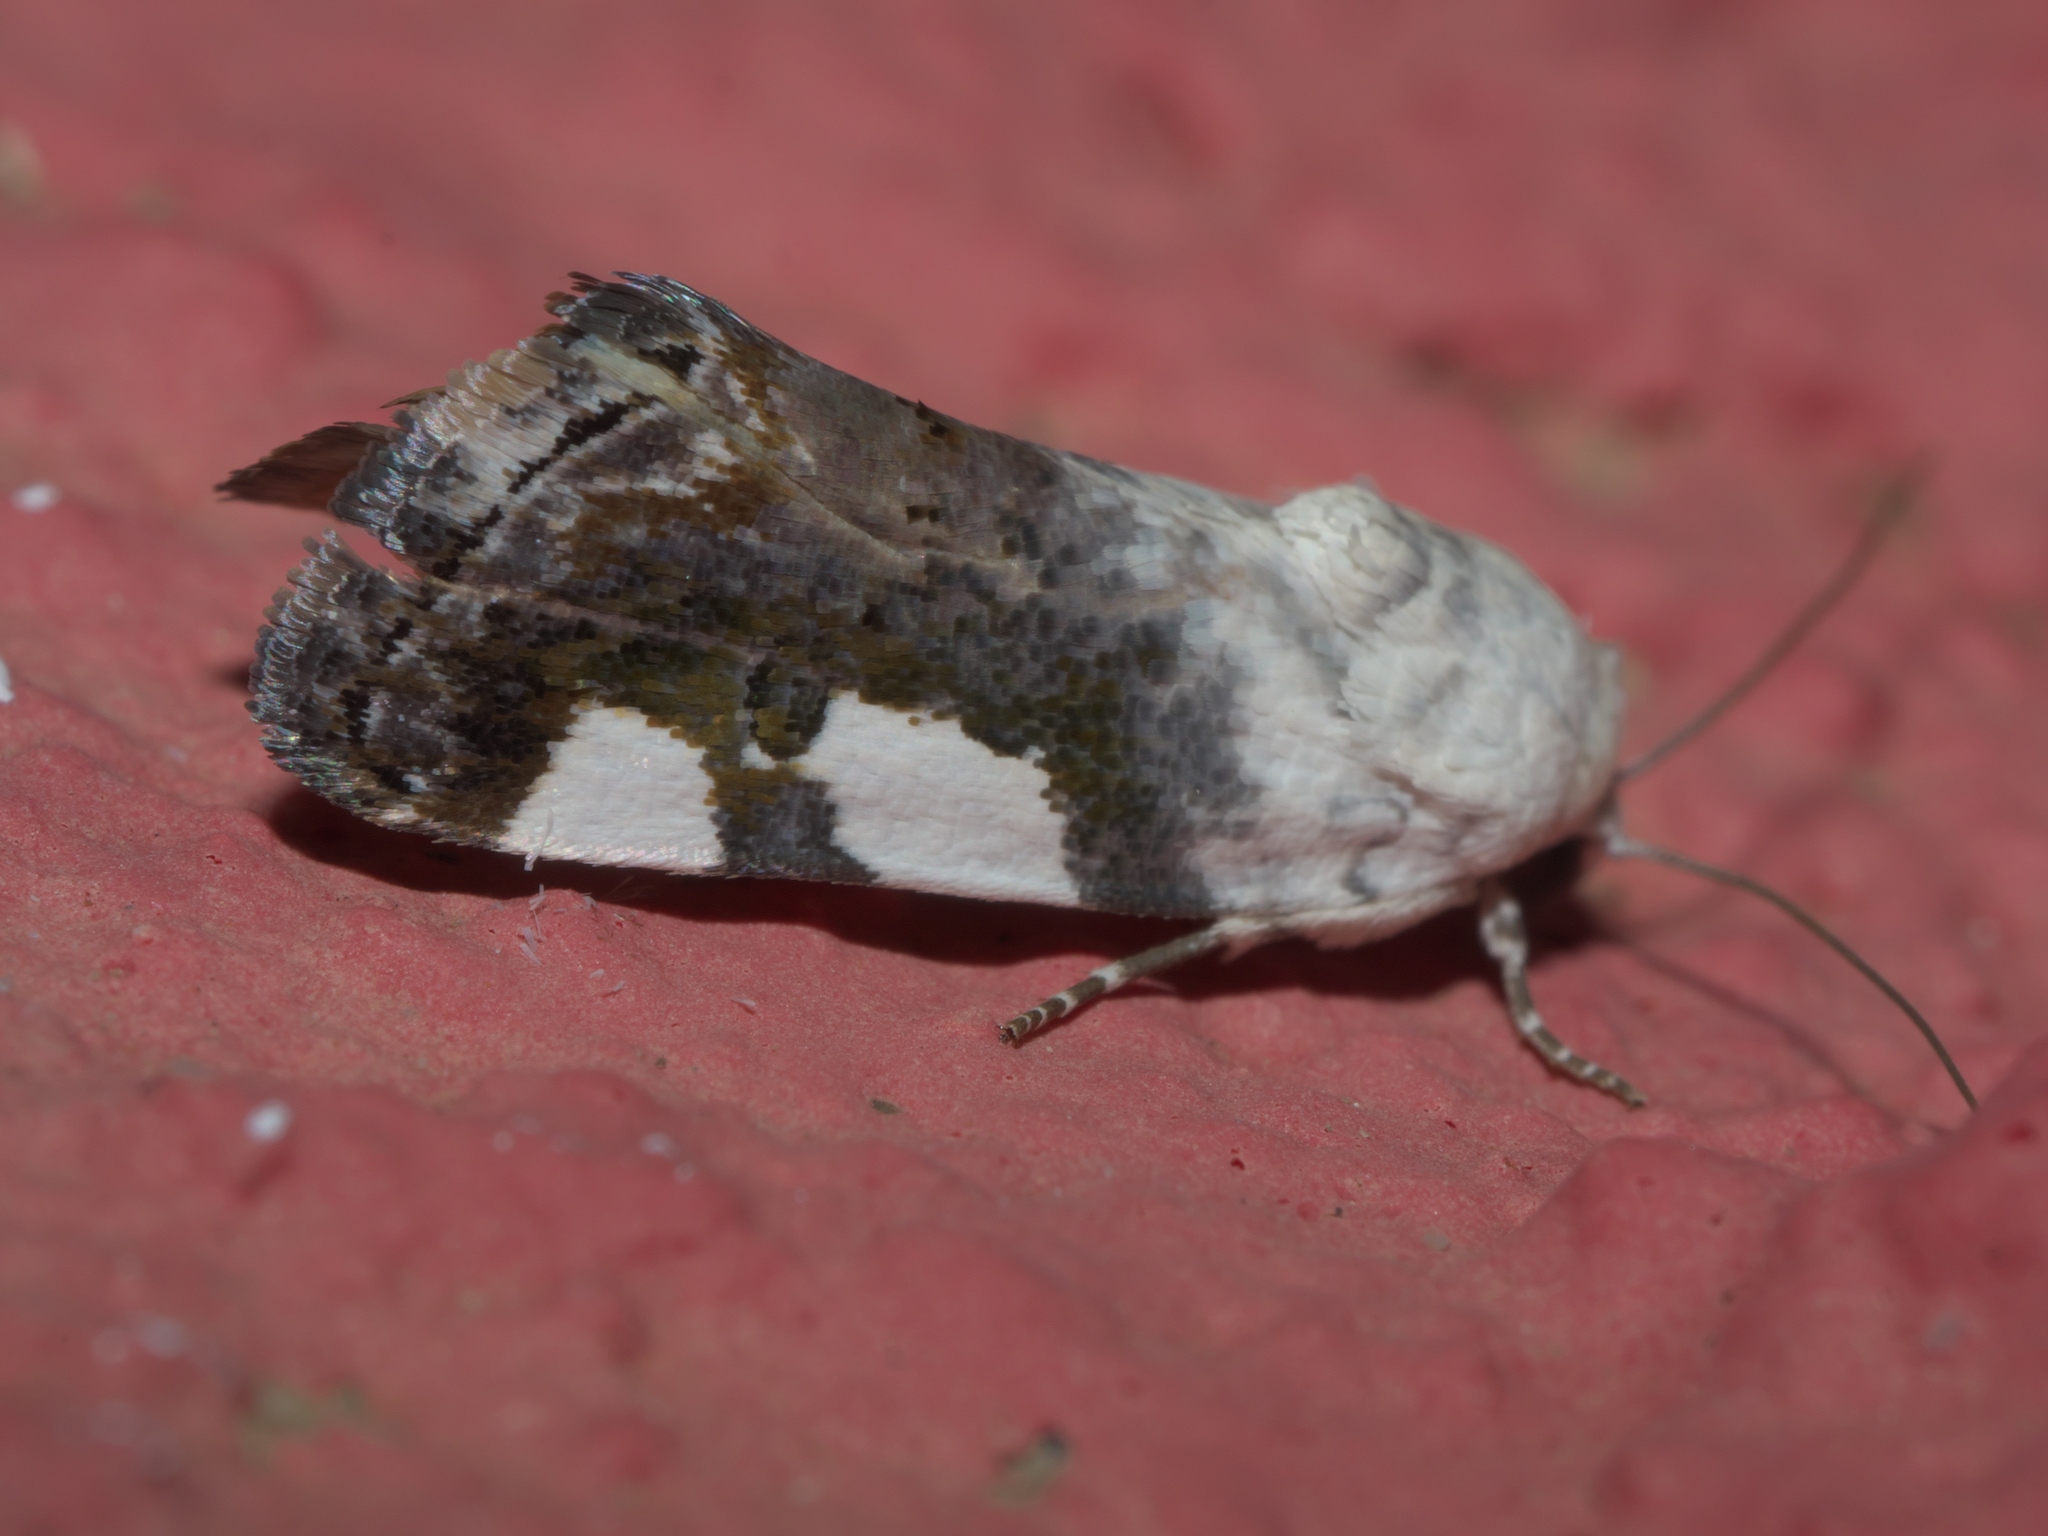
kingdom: Animalia
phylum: Arthropoda
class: Insecta
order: Lepidoptera
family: Noctuidae
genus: Acontia
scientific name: Acontia quadriplaga
